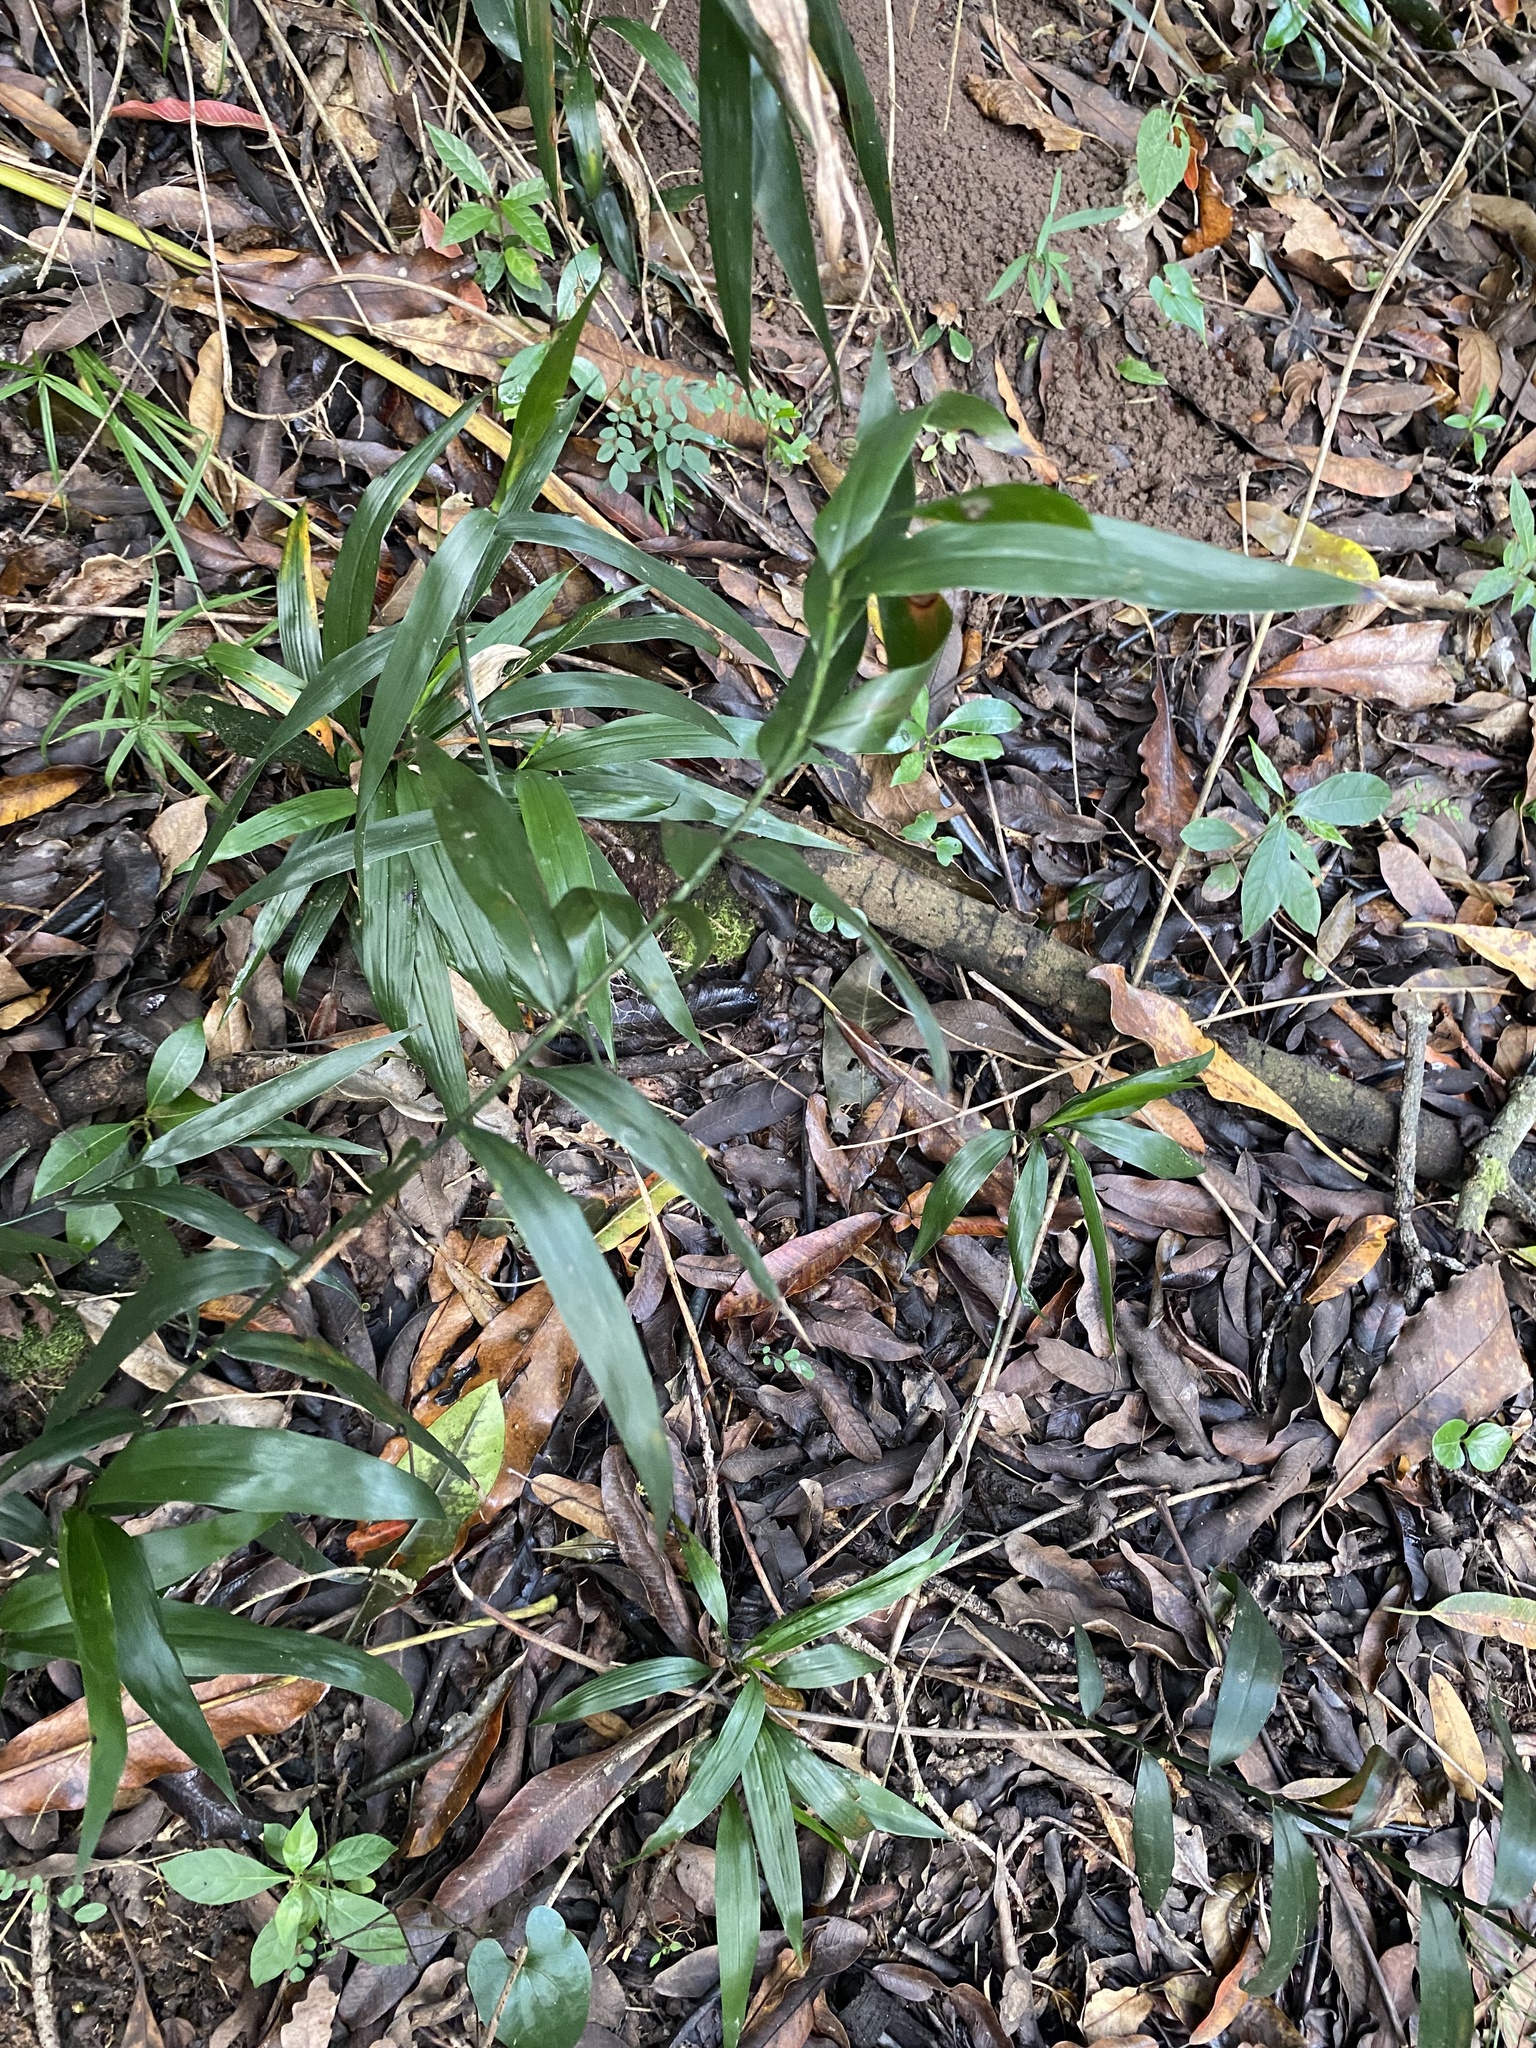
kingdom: Plantae
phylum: Tracheophyta
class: Liliopsida
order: Poales
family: Flagellariaceae
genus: Flagellaria
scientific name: Flagellaria guineensis
